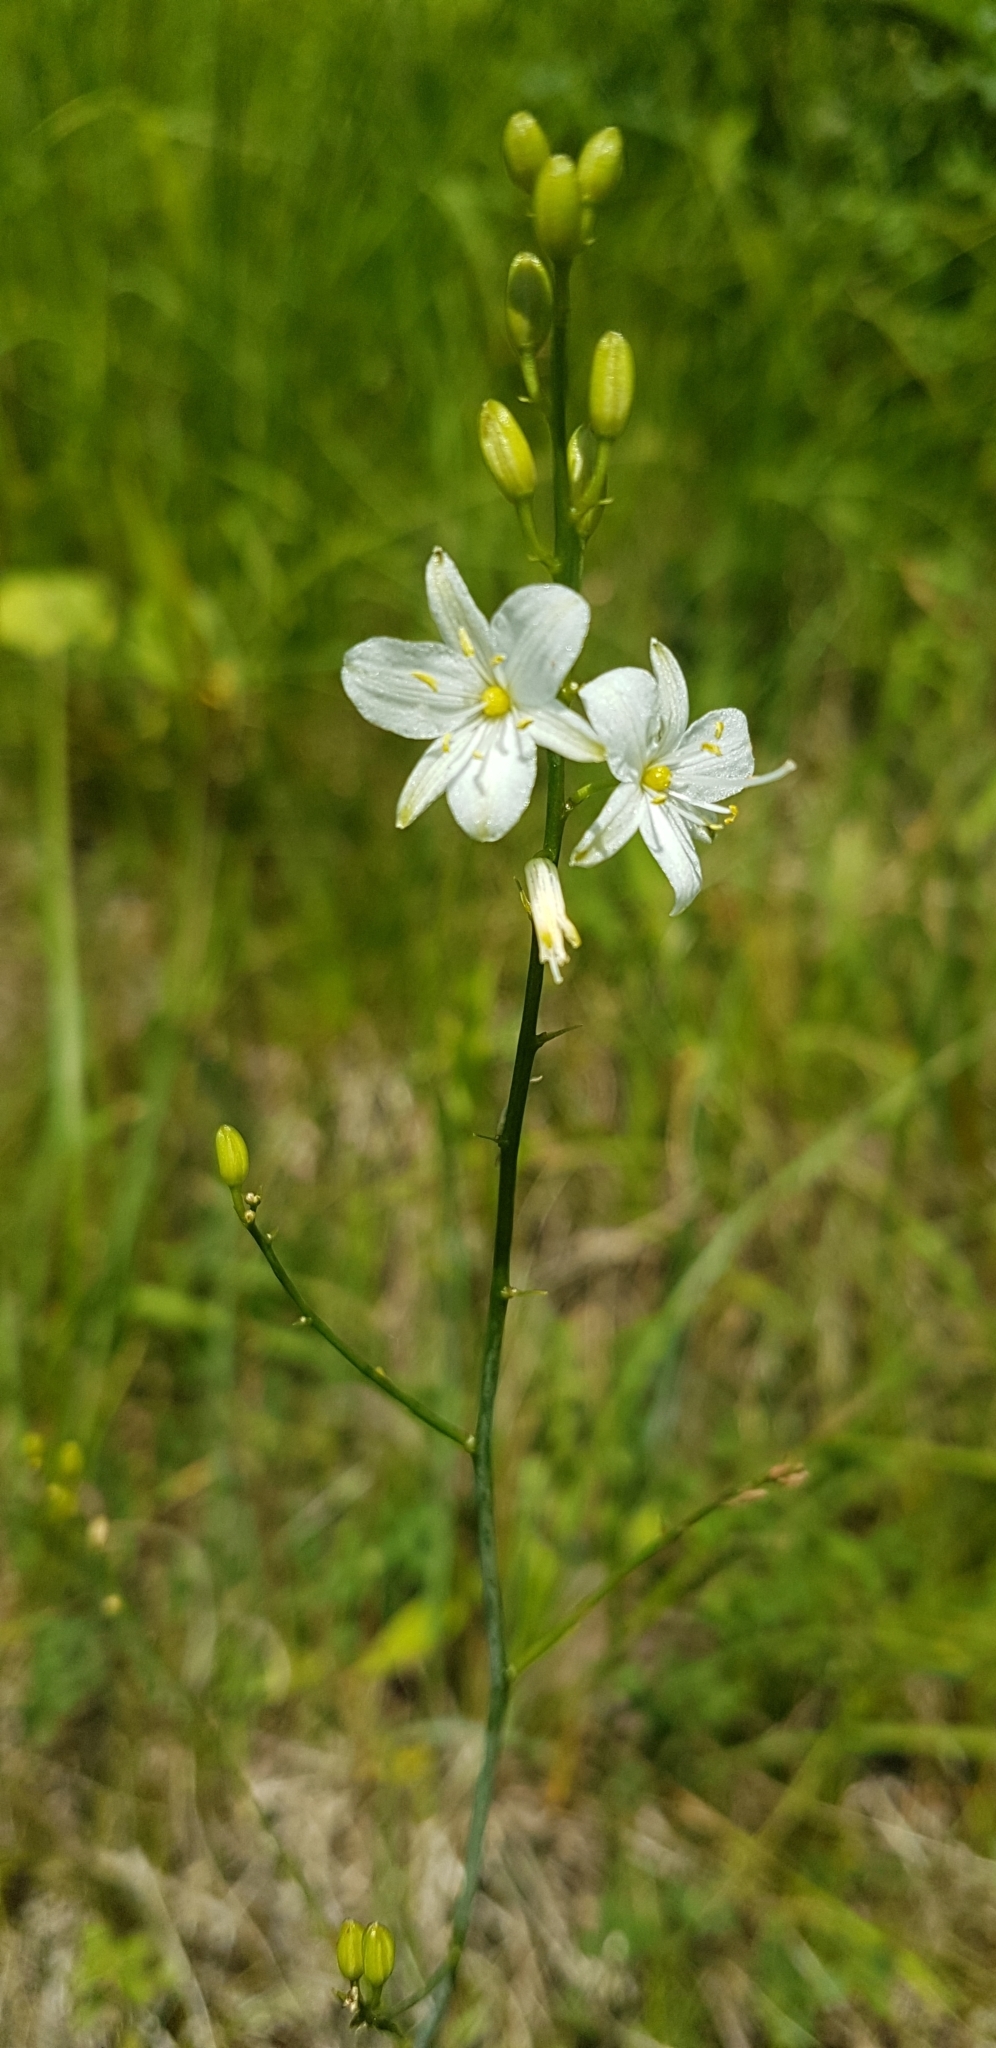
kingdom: Plantae
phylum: Tracheophyta
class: Liliopsida
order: Asparagales
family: Asparagaceae
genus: Anthericum
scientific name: Anthericum ramosum
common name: Branched st. bernard's-lily
